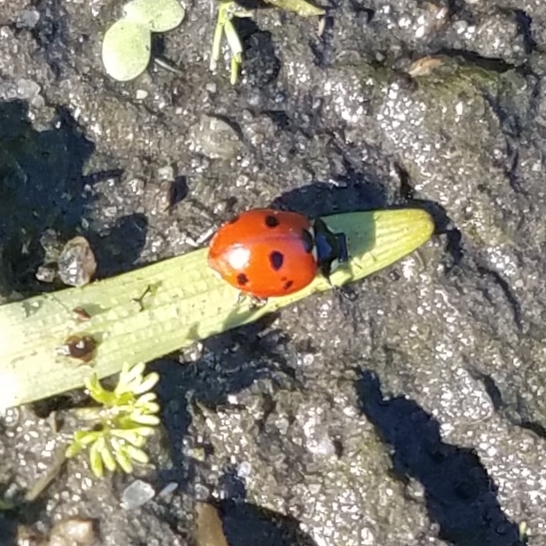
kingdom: Animalia
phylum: Arthropoda
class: Insecta
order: Coleoptera
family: Coccinellidae
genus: Coccinella
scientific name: Coccinella septempunctata
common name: Sevenspotted lady beetle
